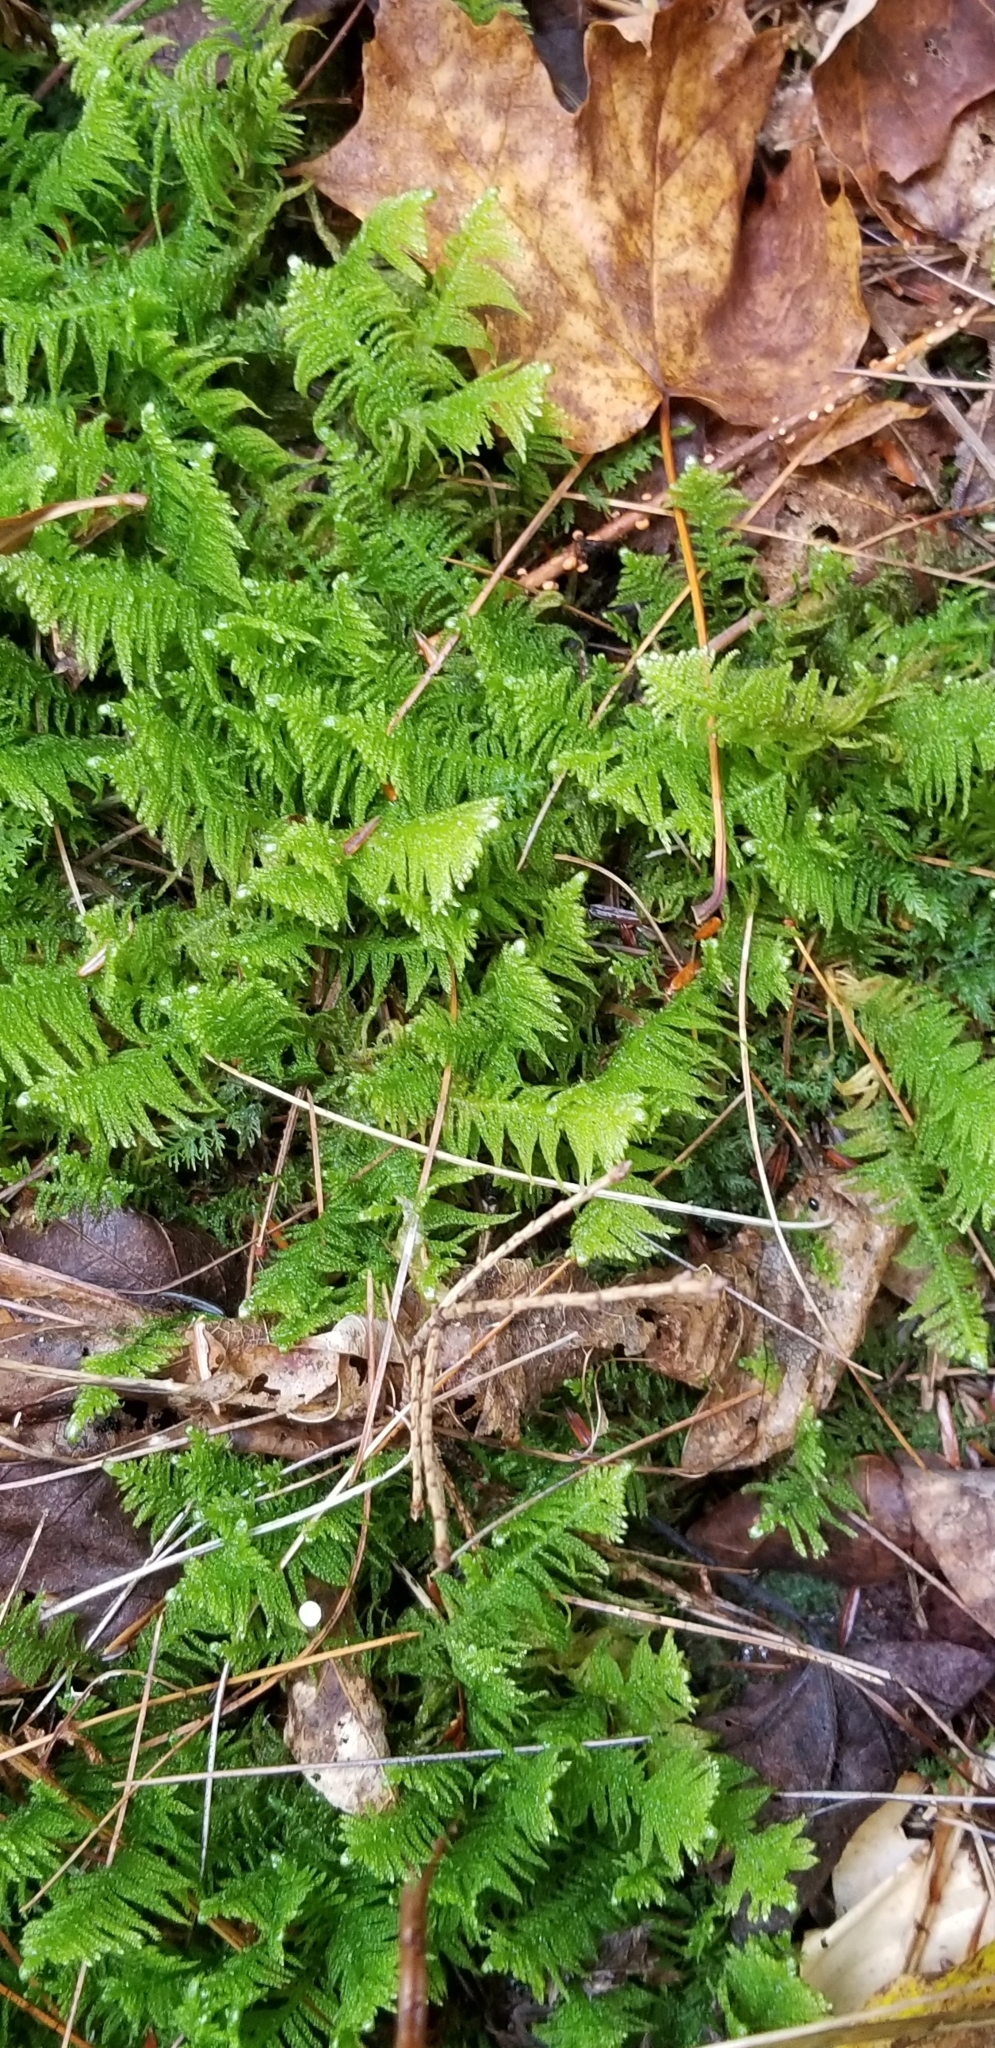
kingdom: Plantae
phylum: Bryophyta
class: Bryopsida
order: Hypnales
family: Pylaisiaceae
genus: Ptilium
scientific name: Ptilium crista-castrensis
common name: Knight's plume moss
